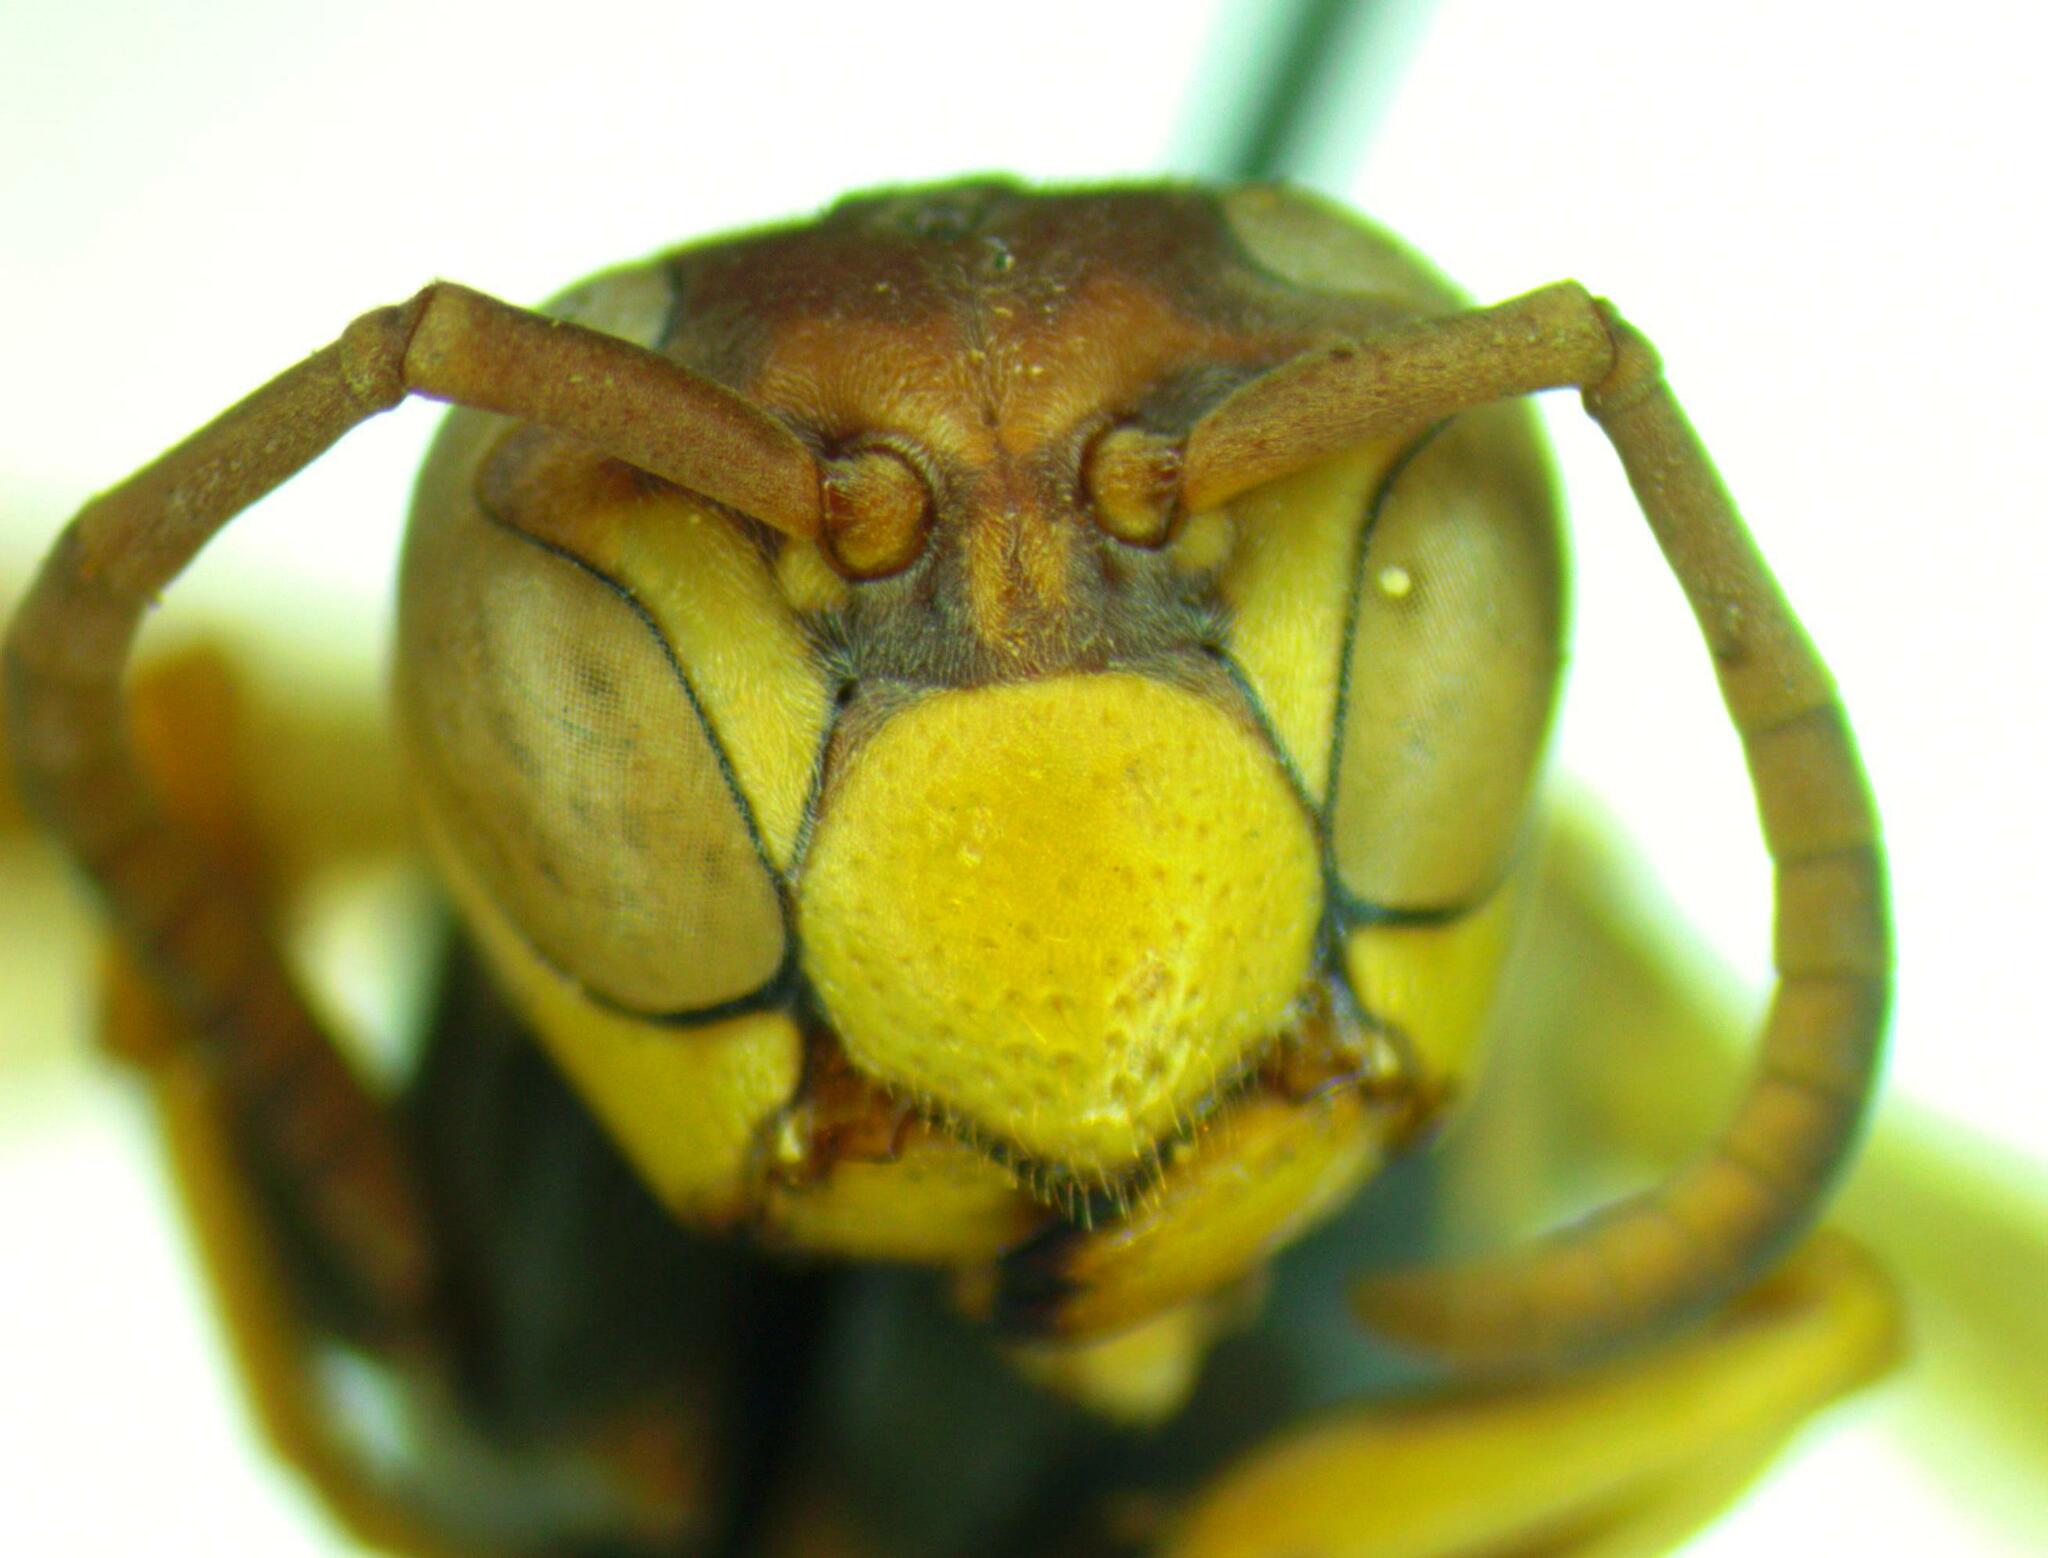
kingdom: Animalia
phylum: Arthropoda
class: Insecta
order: Hymenoptera
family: Eumenidae
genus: Polistes
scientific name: Polistes dorsalis
